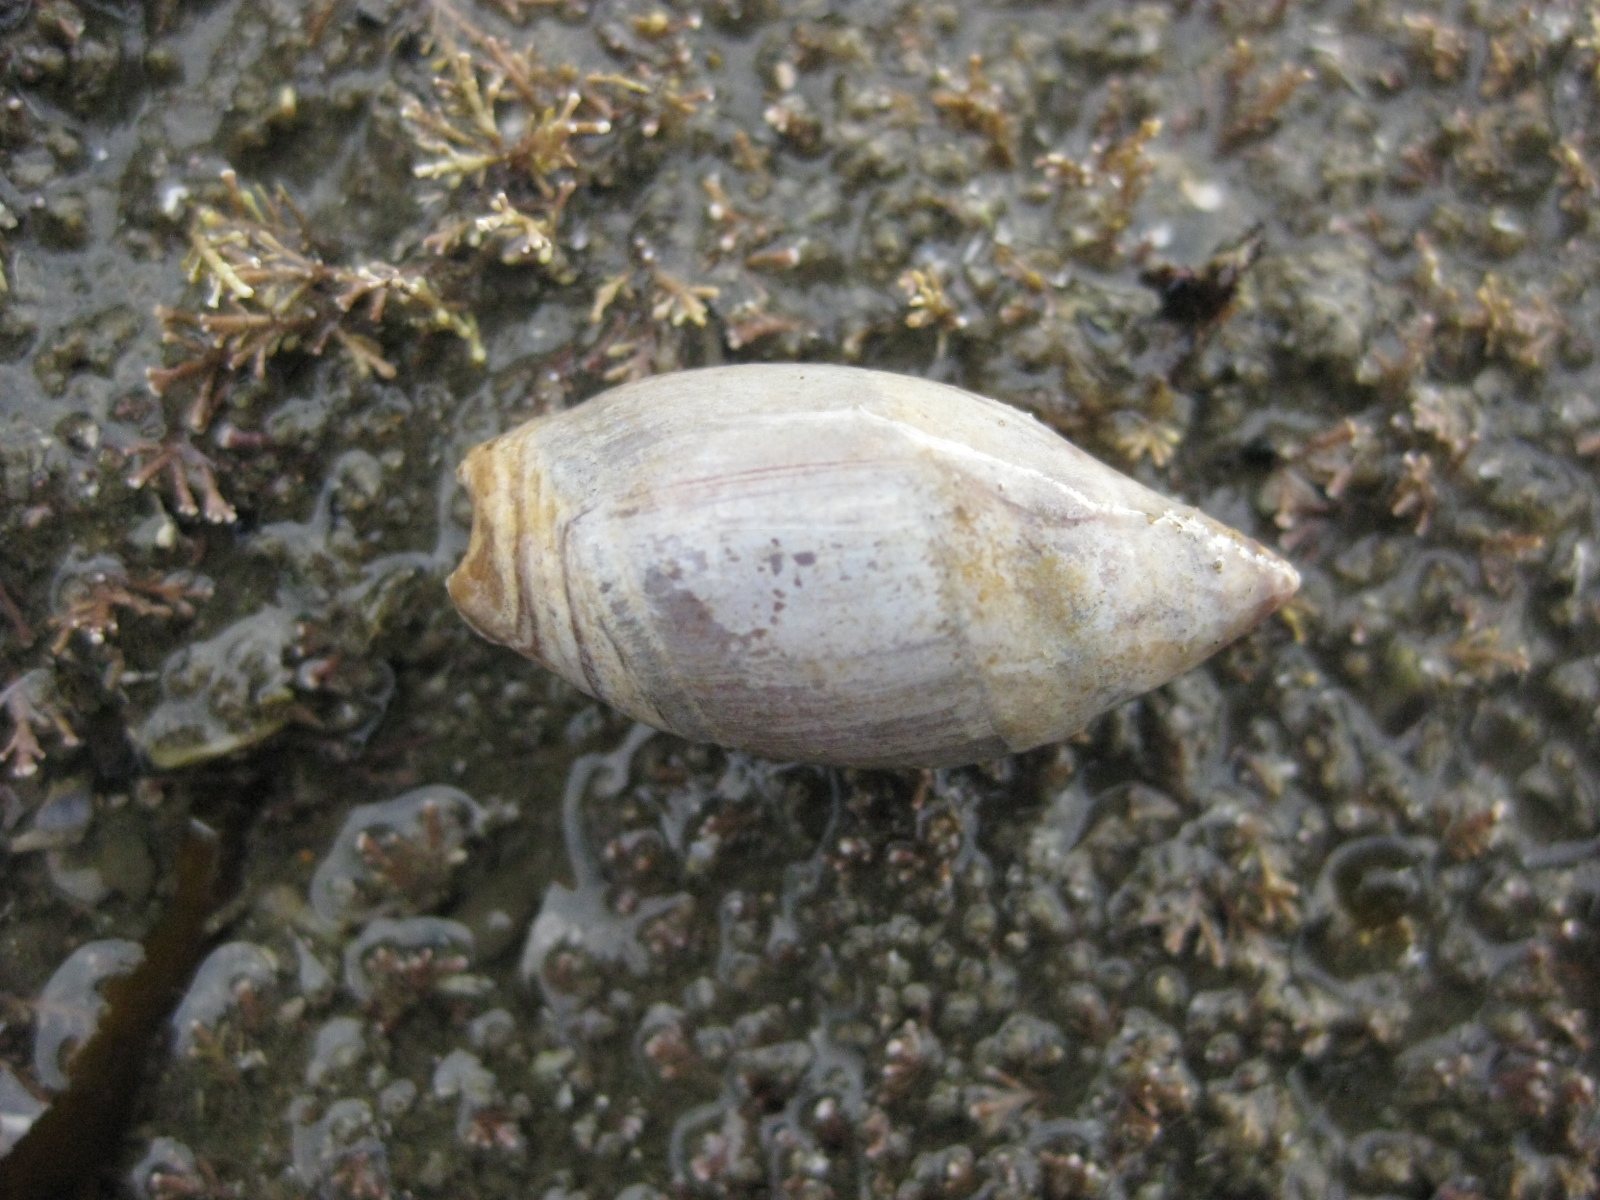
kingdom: Animalia
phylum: Mollusca
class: Gastropoda
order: Neogastropoda
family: Ancillariidae
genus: Amalda
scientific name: Amalda australis
